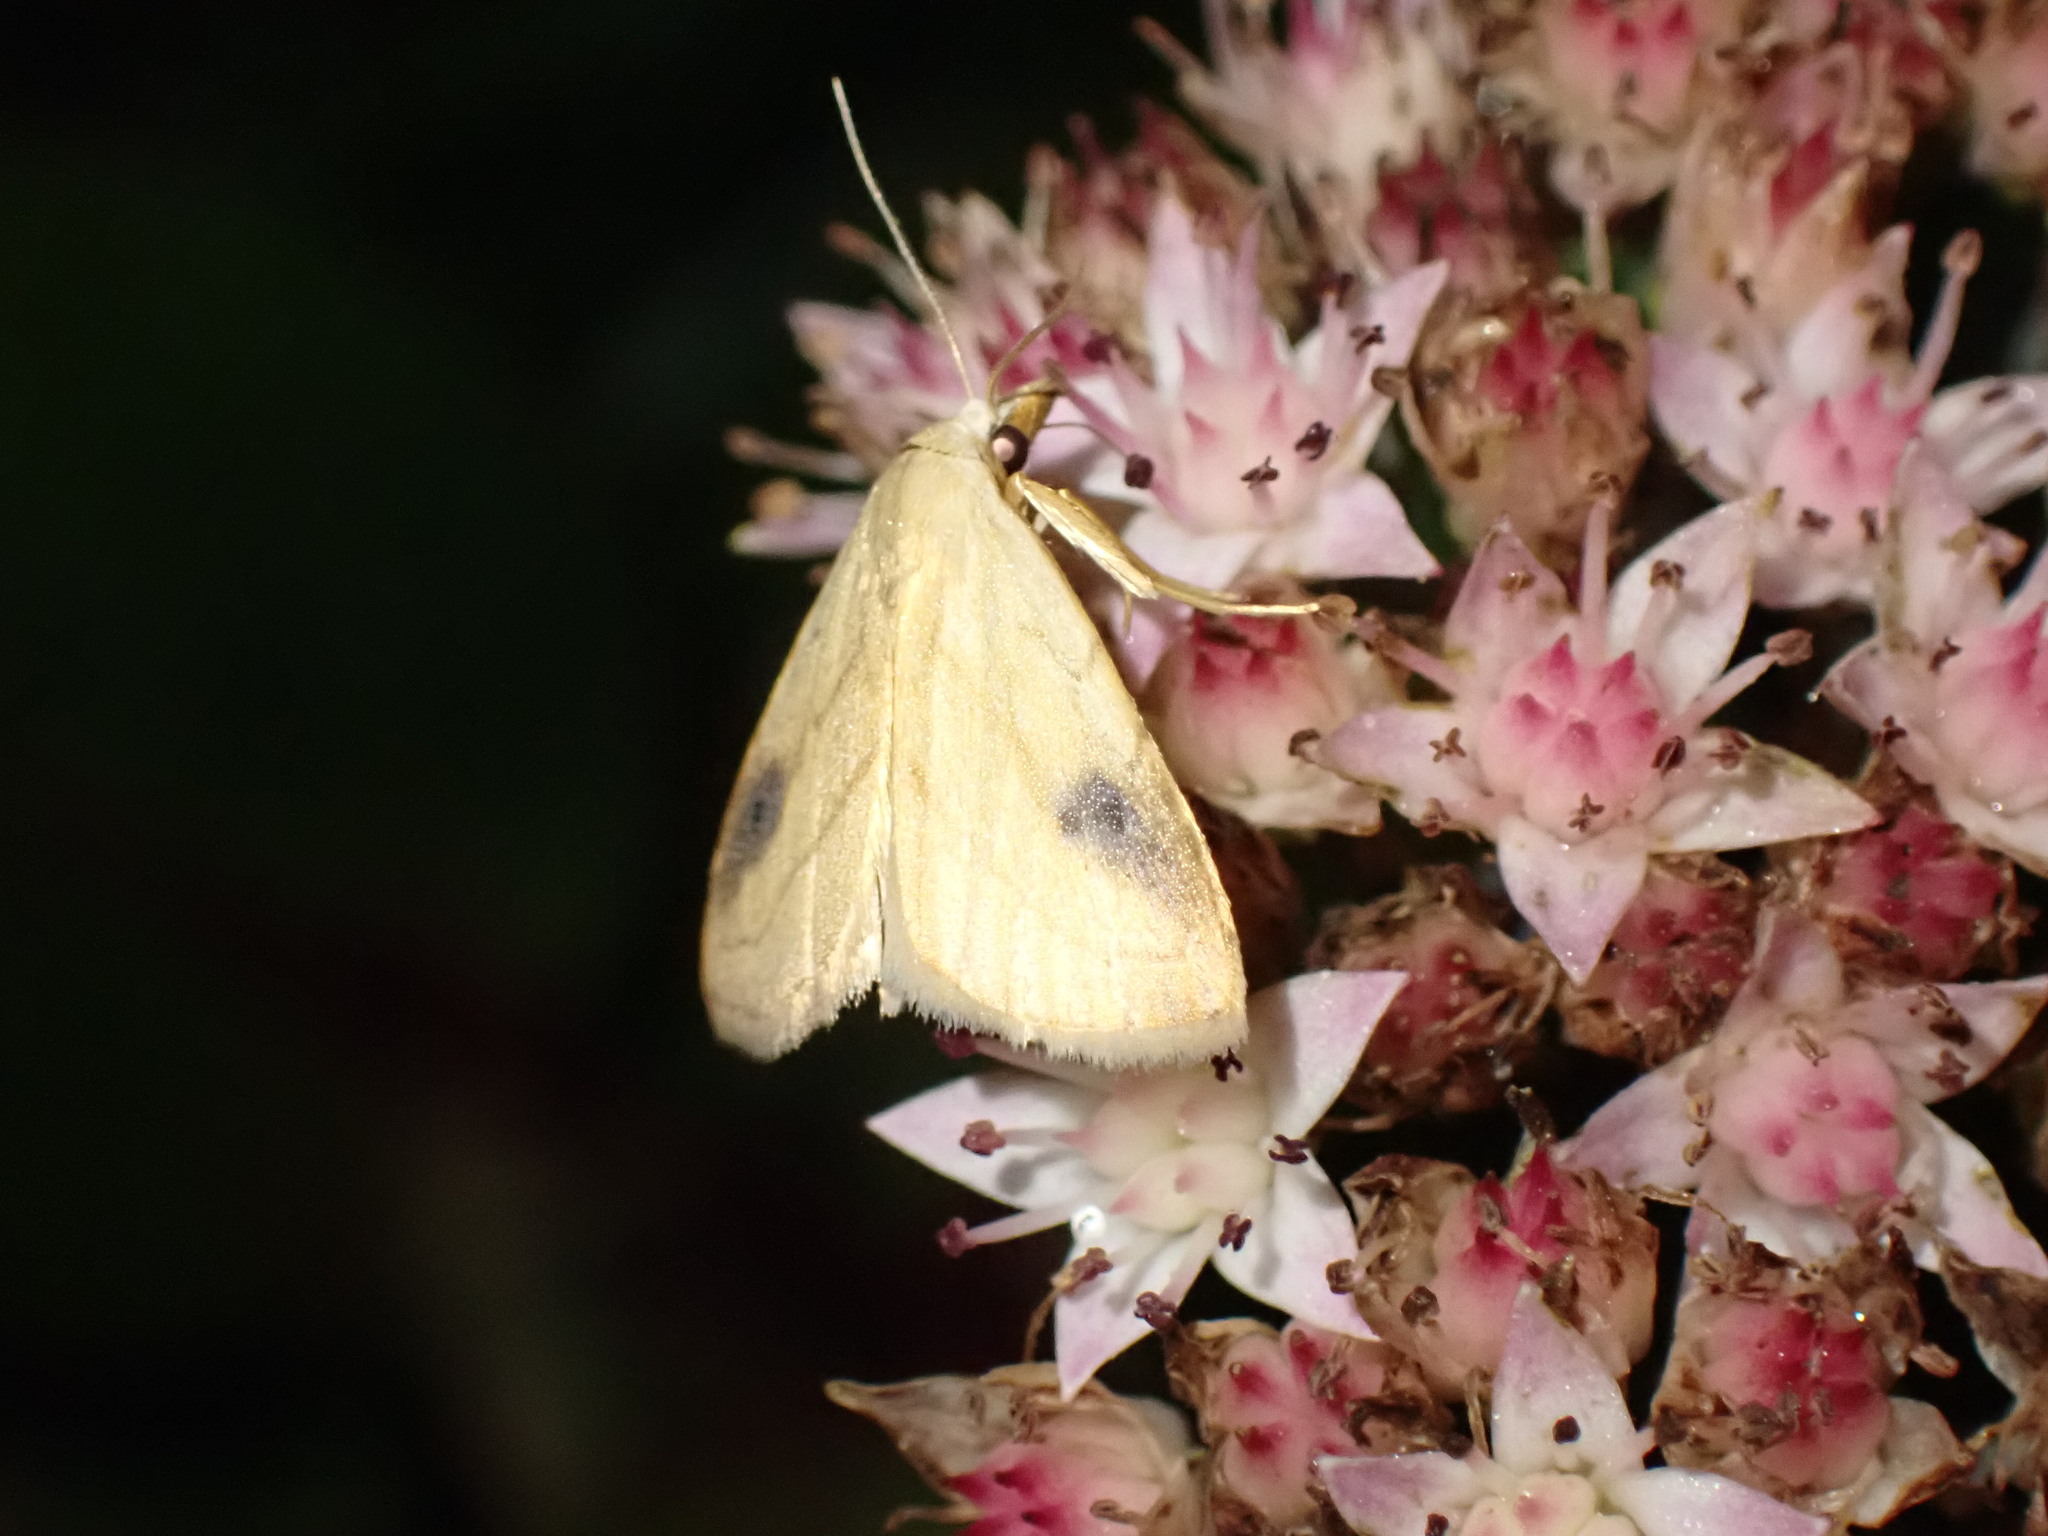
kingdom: Animalia
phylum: Arthropoda
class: Insecta
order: Lepidoptera
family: Erebidae
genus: Rivula
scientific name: Rivula propinqualis
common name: Spotted grass moth
